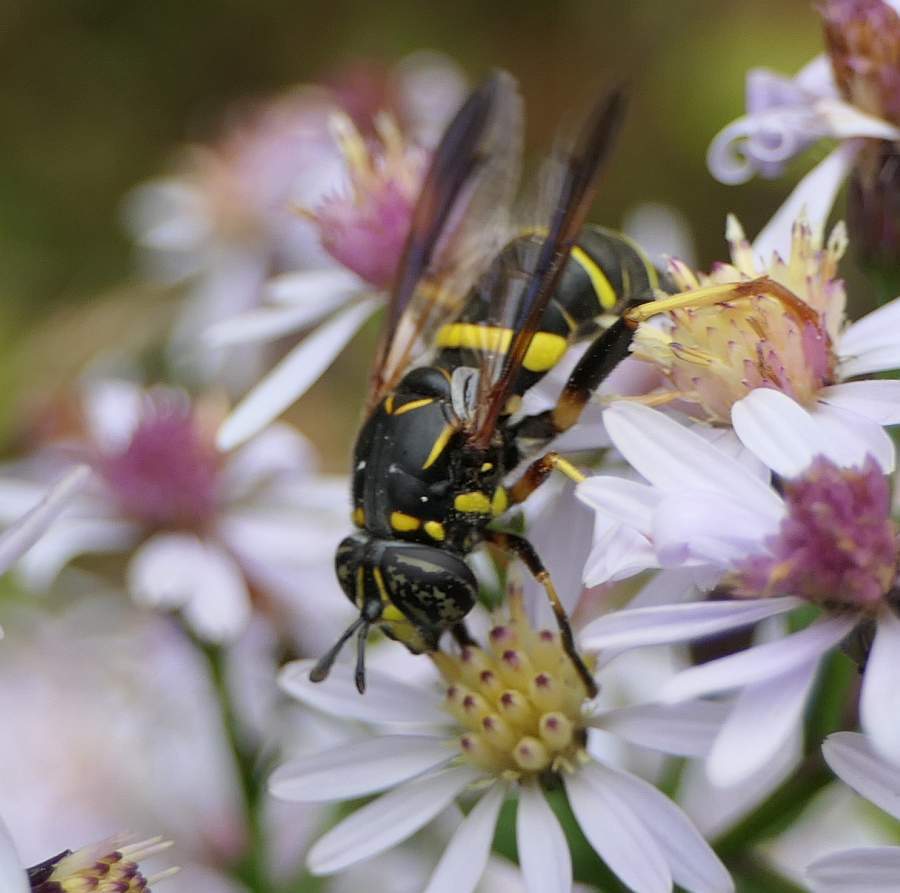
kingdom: Animalia
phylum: Arthropoda
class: Insecta
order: Diptera
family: Syrphidae
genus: Spilomyia
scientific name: Spilomyia sayi
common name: Four-lined hornet fly
